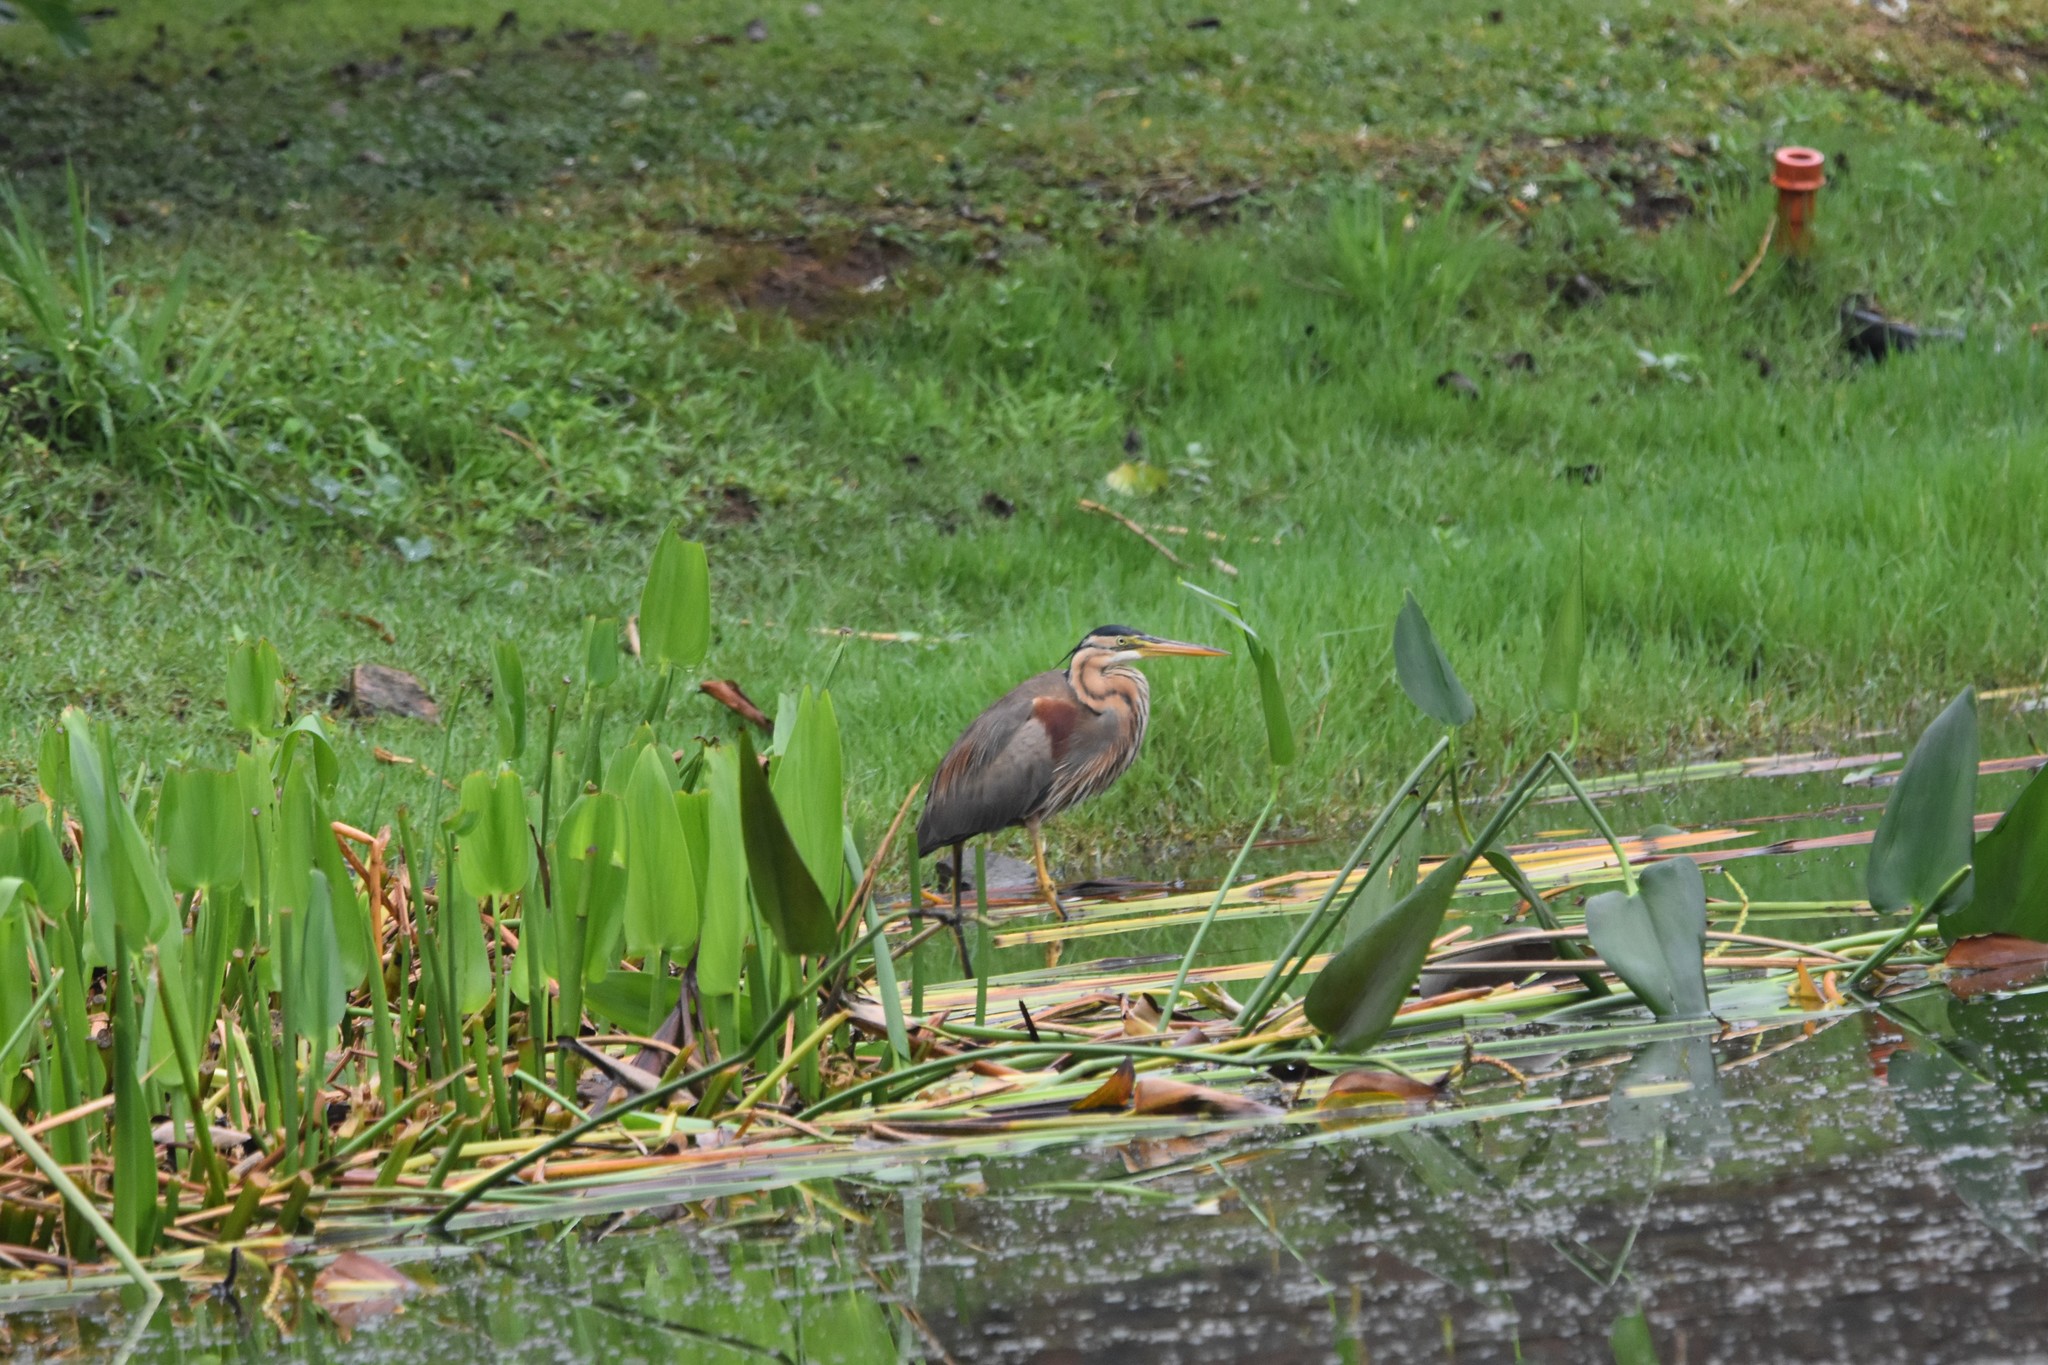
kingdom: Animalia
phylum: Chordata
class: Aves
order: Pelecaniformes
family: Ardeidae
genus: Ardea
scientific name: Ardea purpurea
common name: Purple heron
